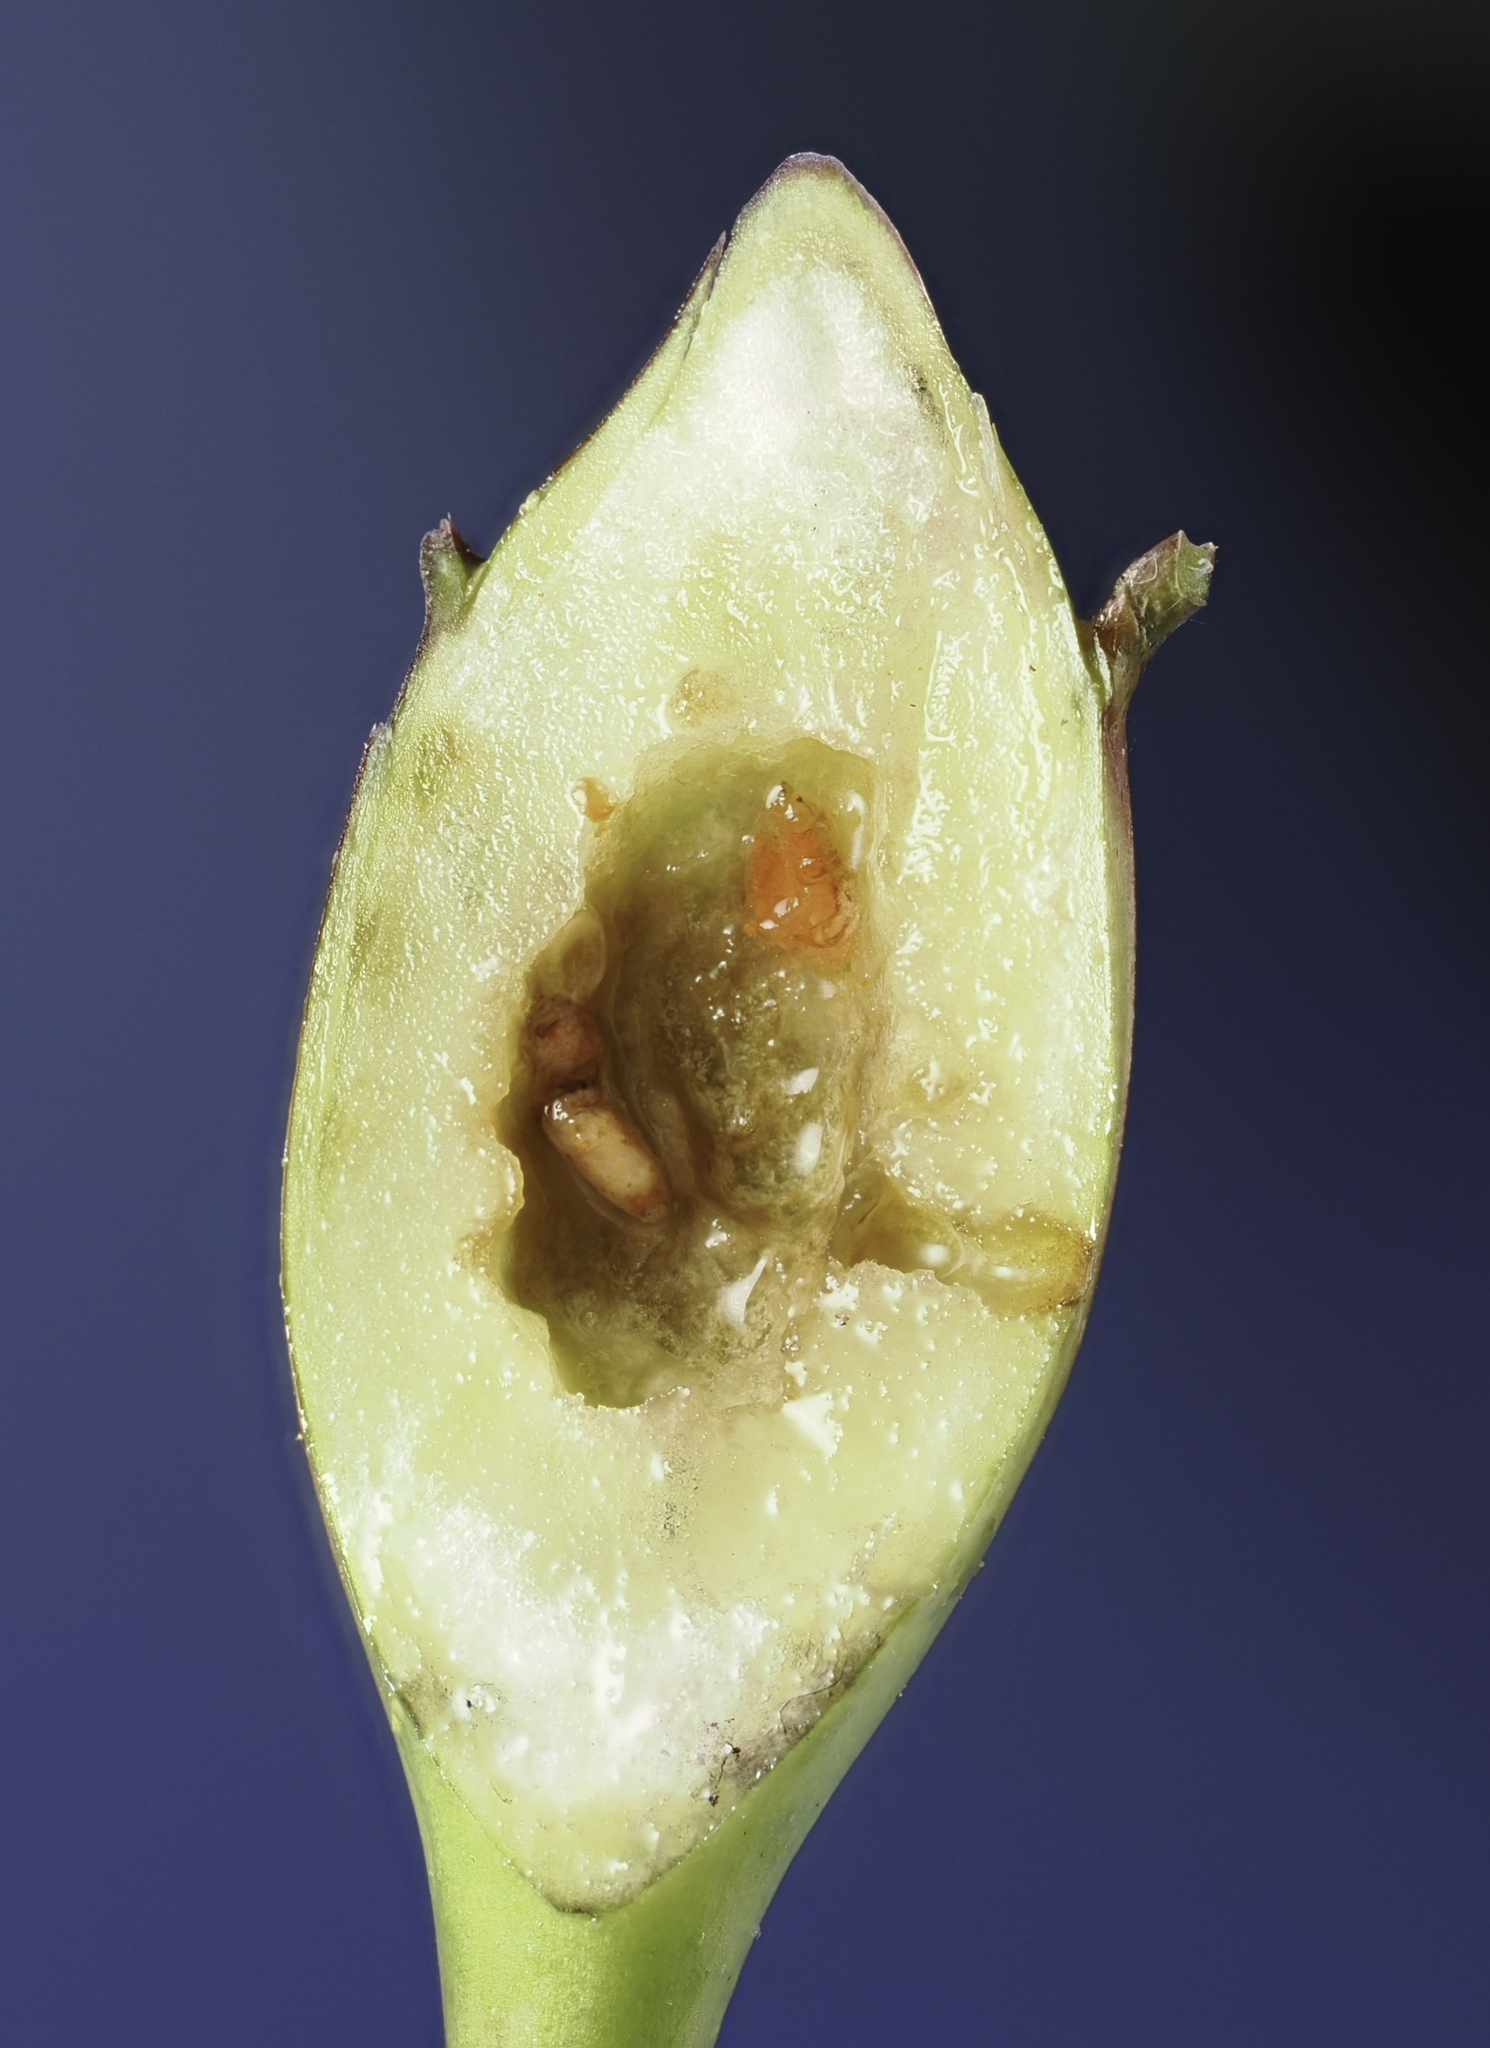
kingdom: Animalia
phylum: Arthropoda
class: Insecta
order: Diptera
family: Cecidomyiidae
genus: Resseliella
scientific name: Resseliella clavula
